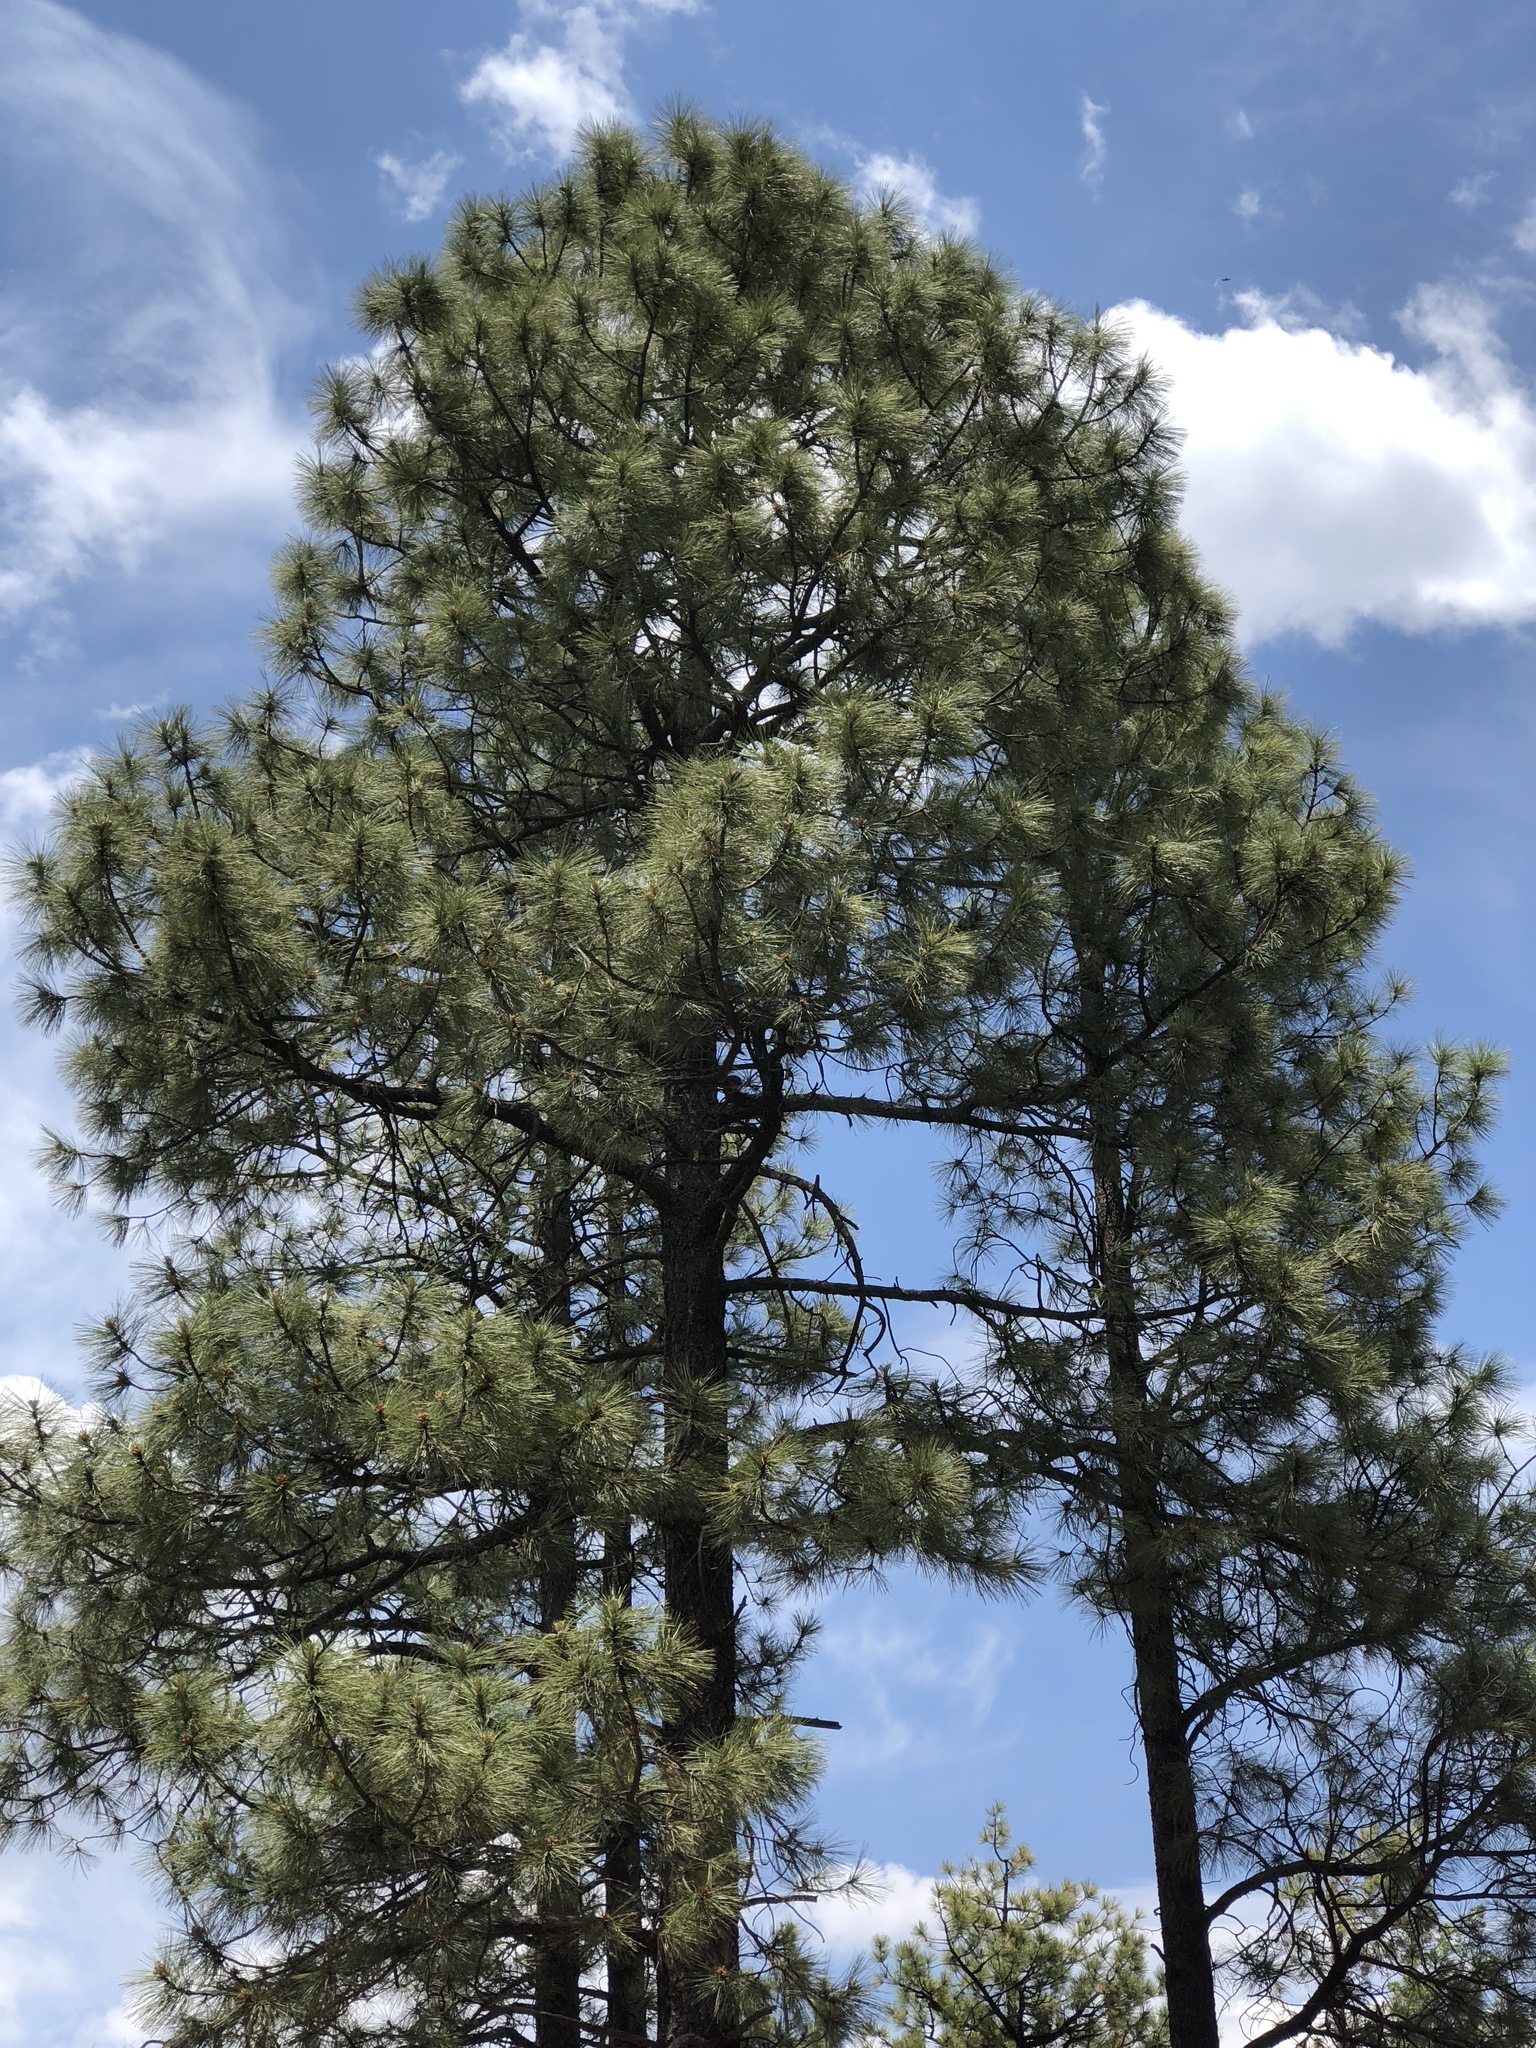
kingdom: Plantae
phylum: Tracheophyta
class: Pinopsida
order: Pinales
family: Pinaceae
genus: Pinus
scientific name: Pinus ponderosa
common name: Western yellow-pine
